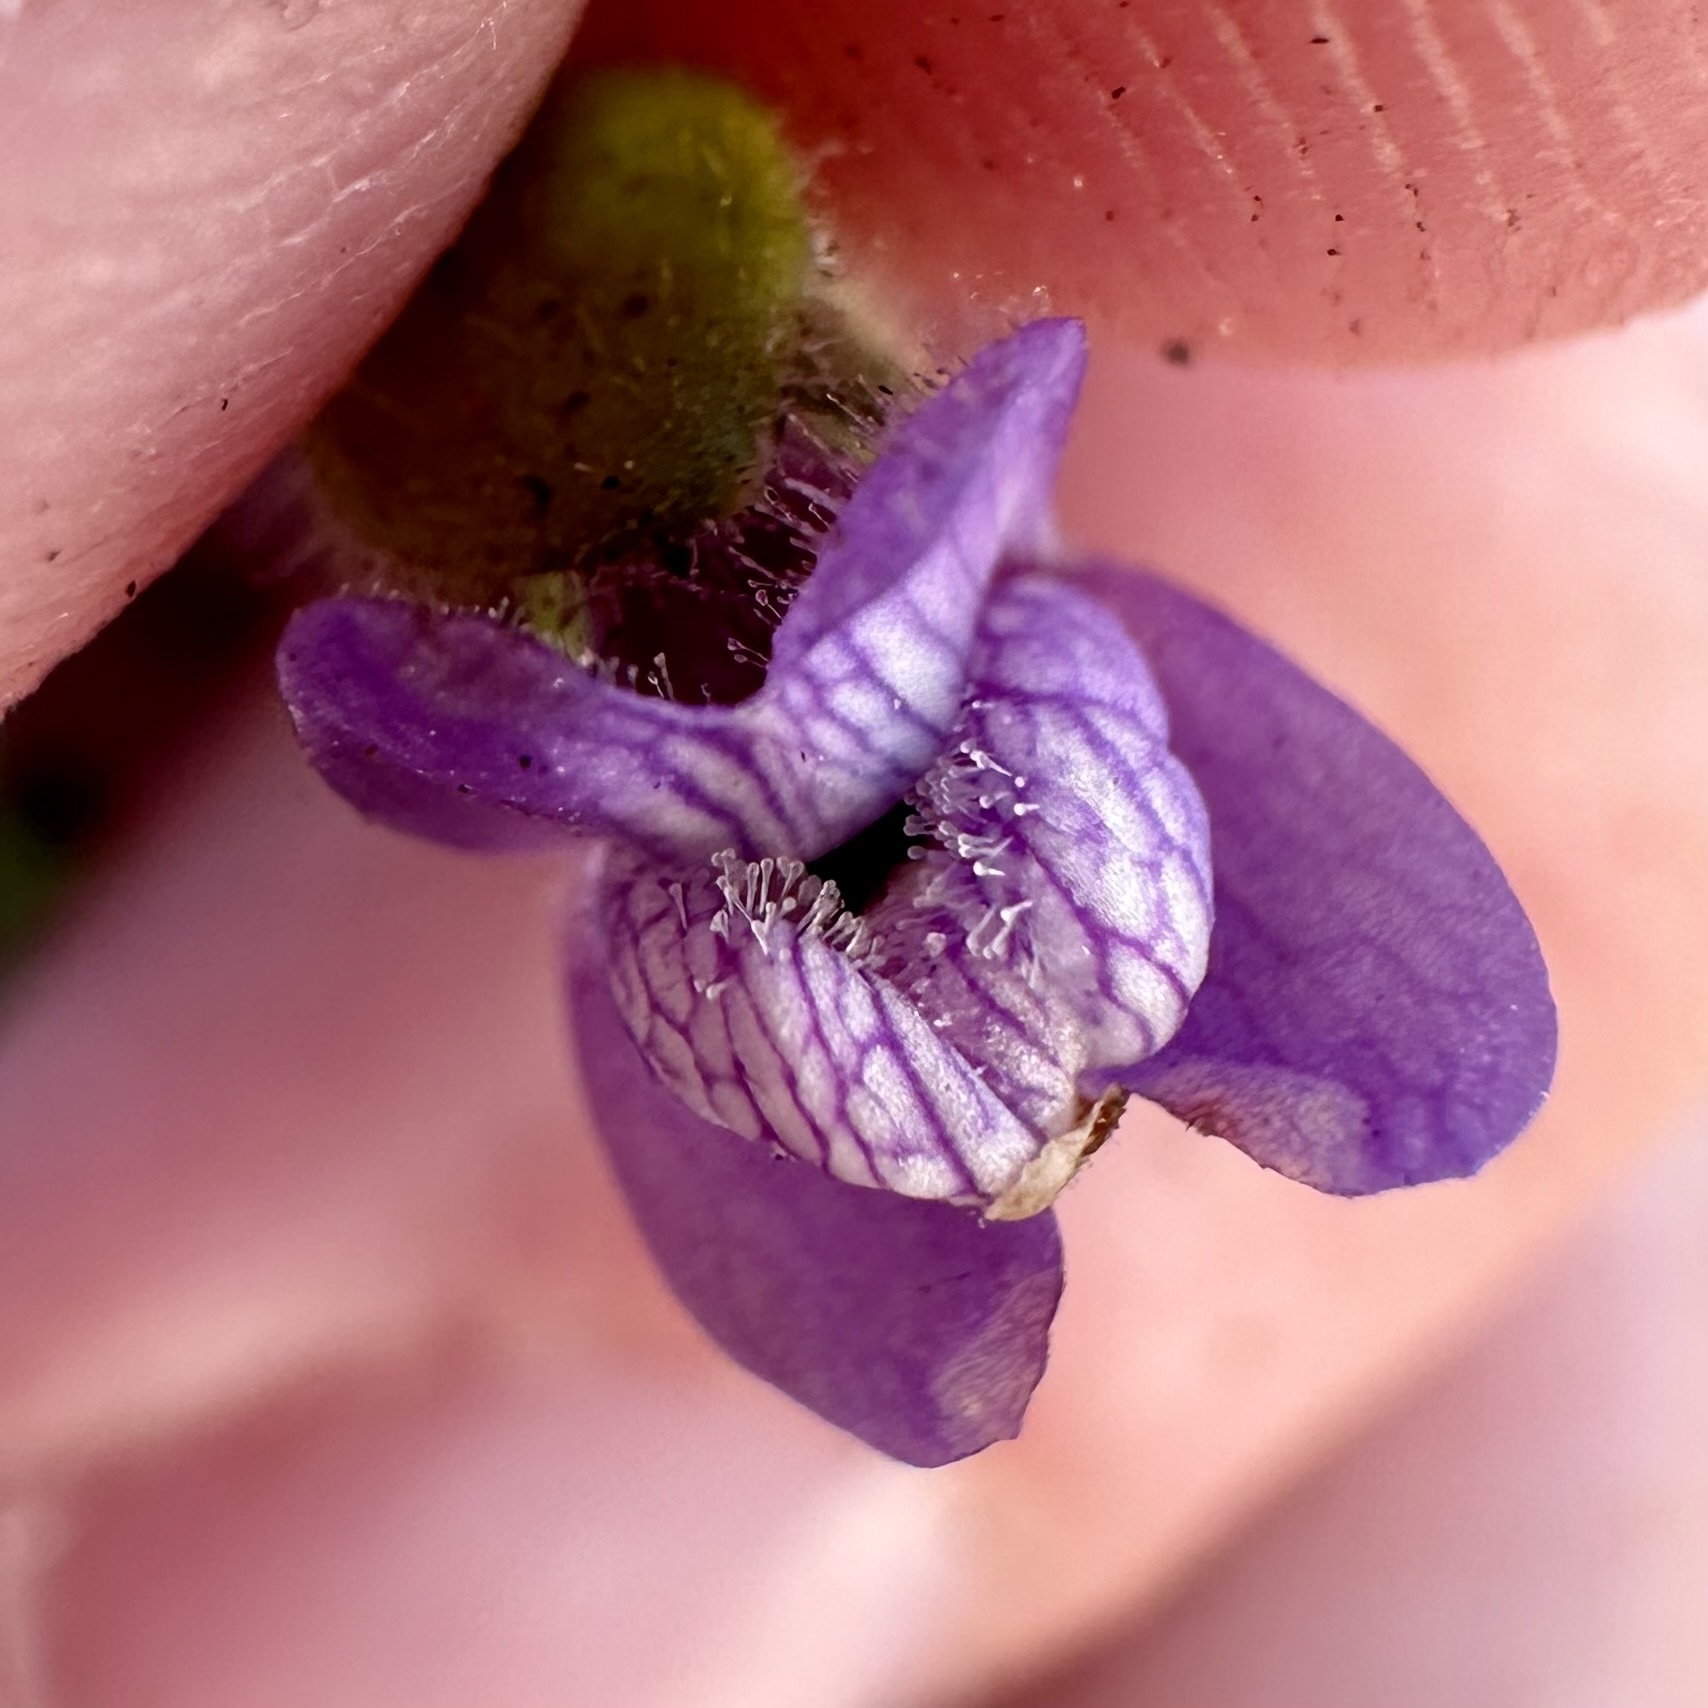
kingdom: Plantae
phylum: Tracheophyta
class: Magnoliopsida
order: Lamiales
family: Plantaginaceae
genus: Sairocarpus
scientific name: Sairocarpus nuttallianus
